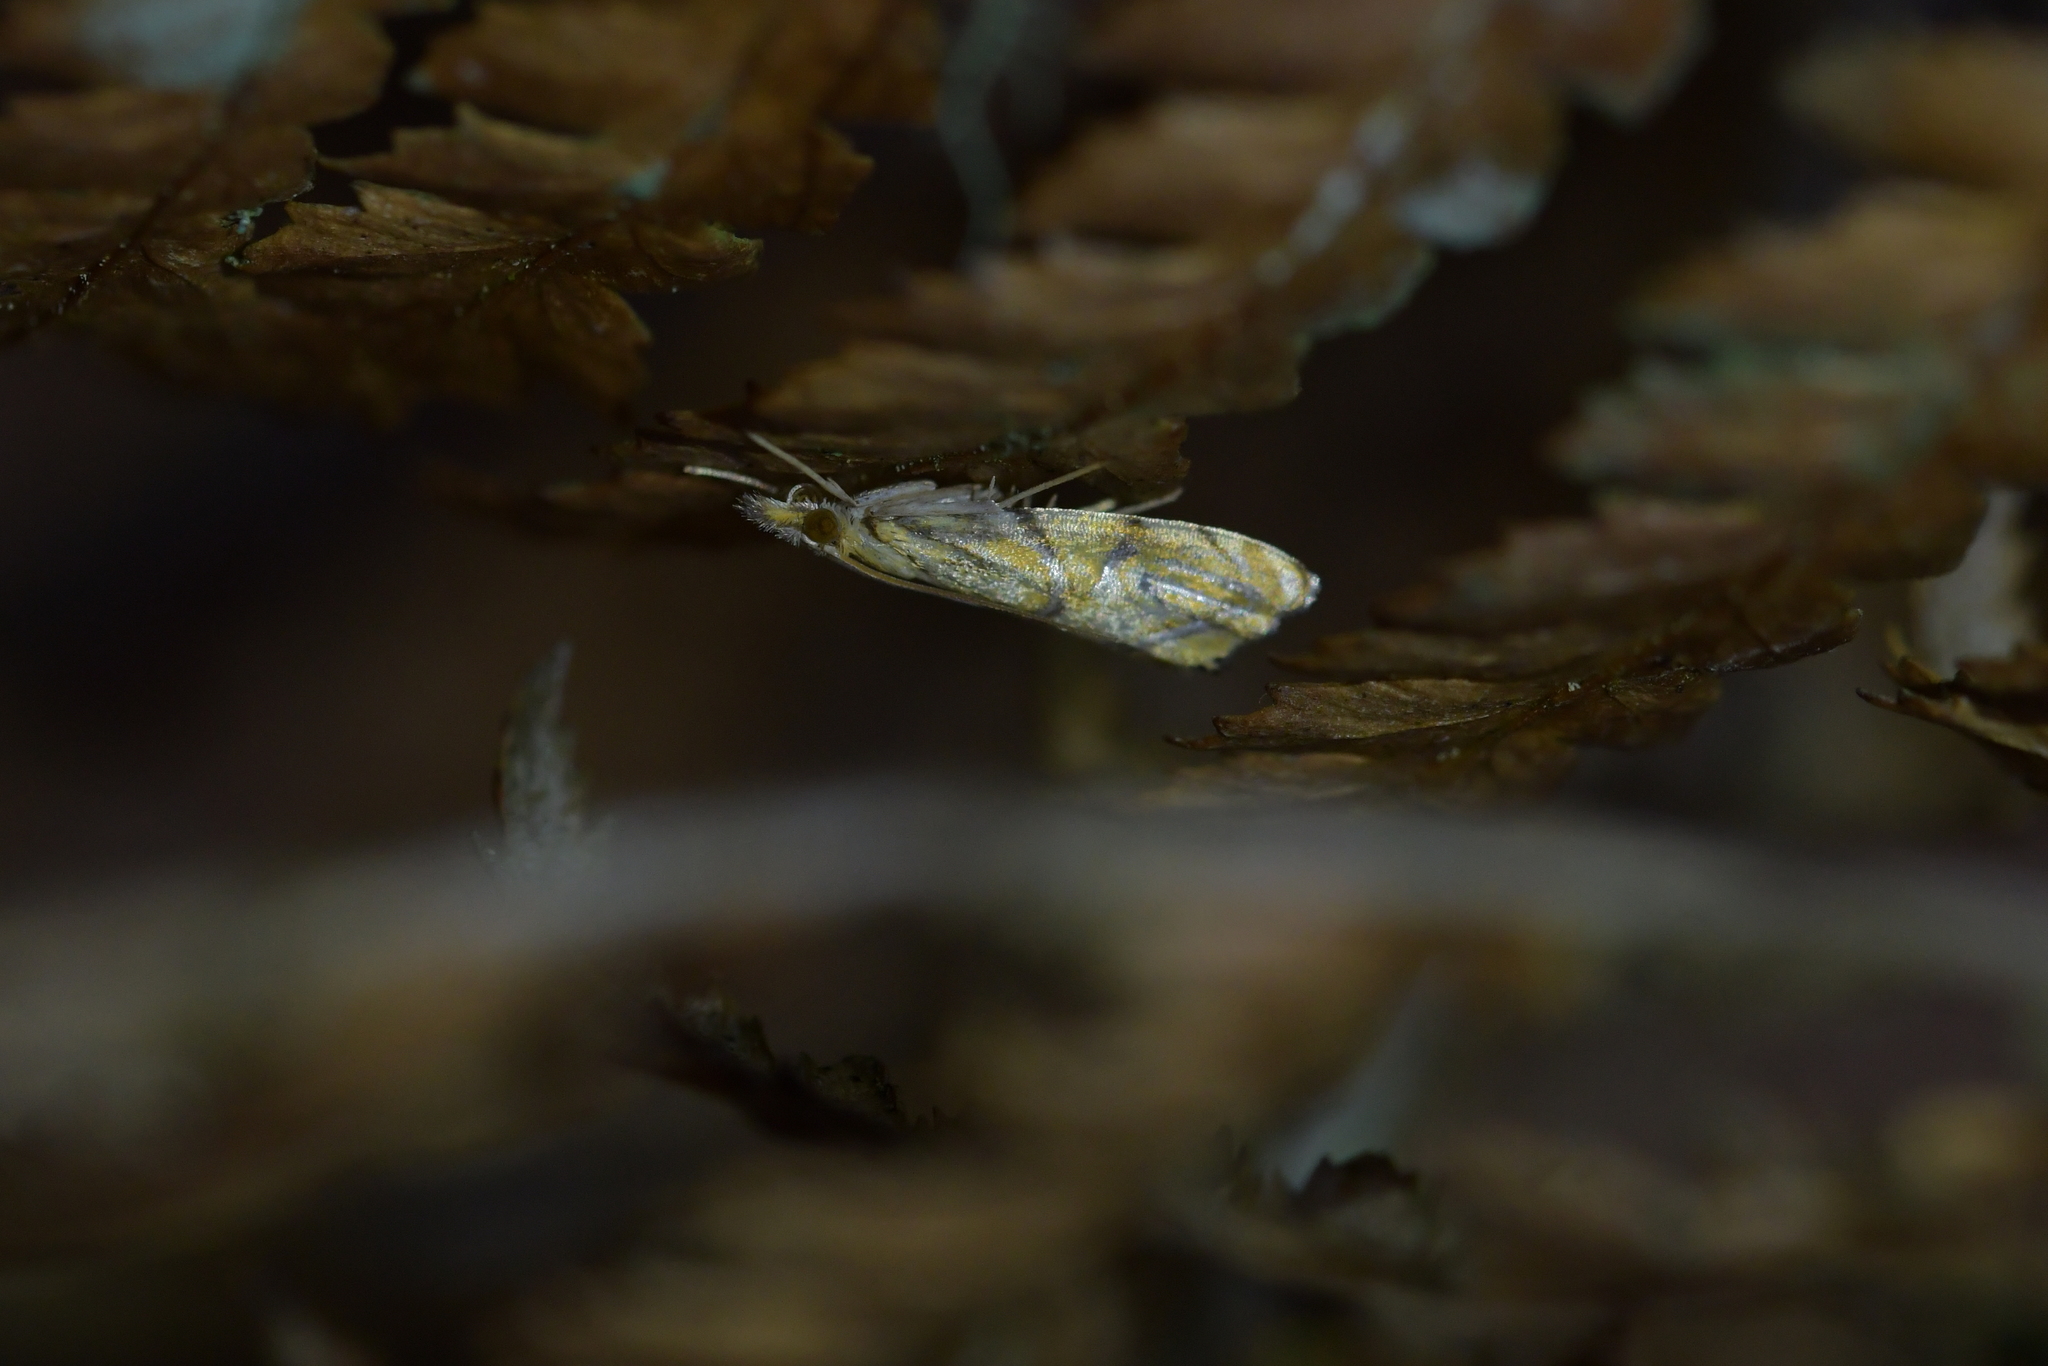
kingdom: Animalia
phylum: Arthropoda
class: Insecta
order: Lepidoptera
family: Crambidae
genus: Glaucocharis
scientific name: Glaucocharis auriscriptella
